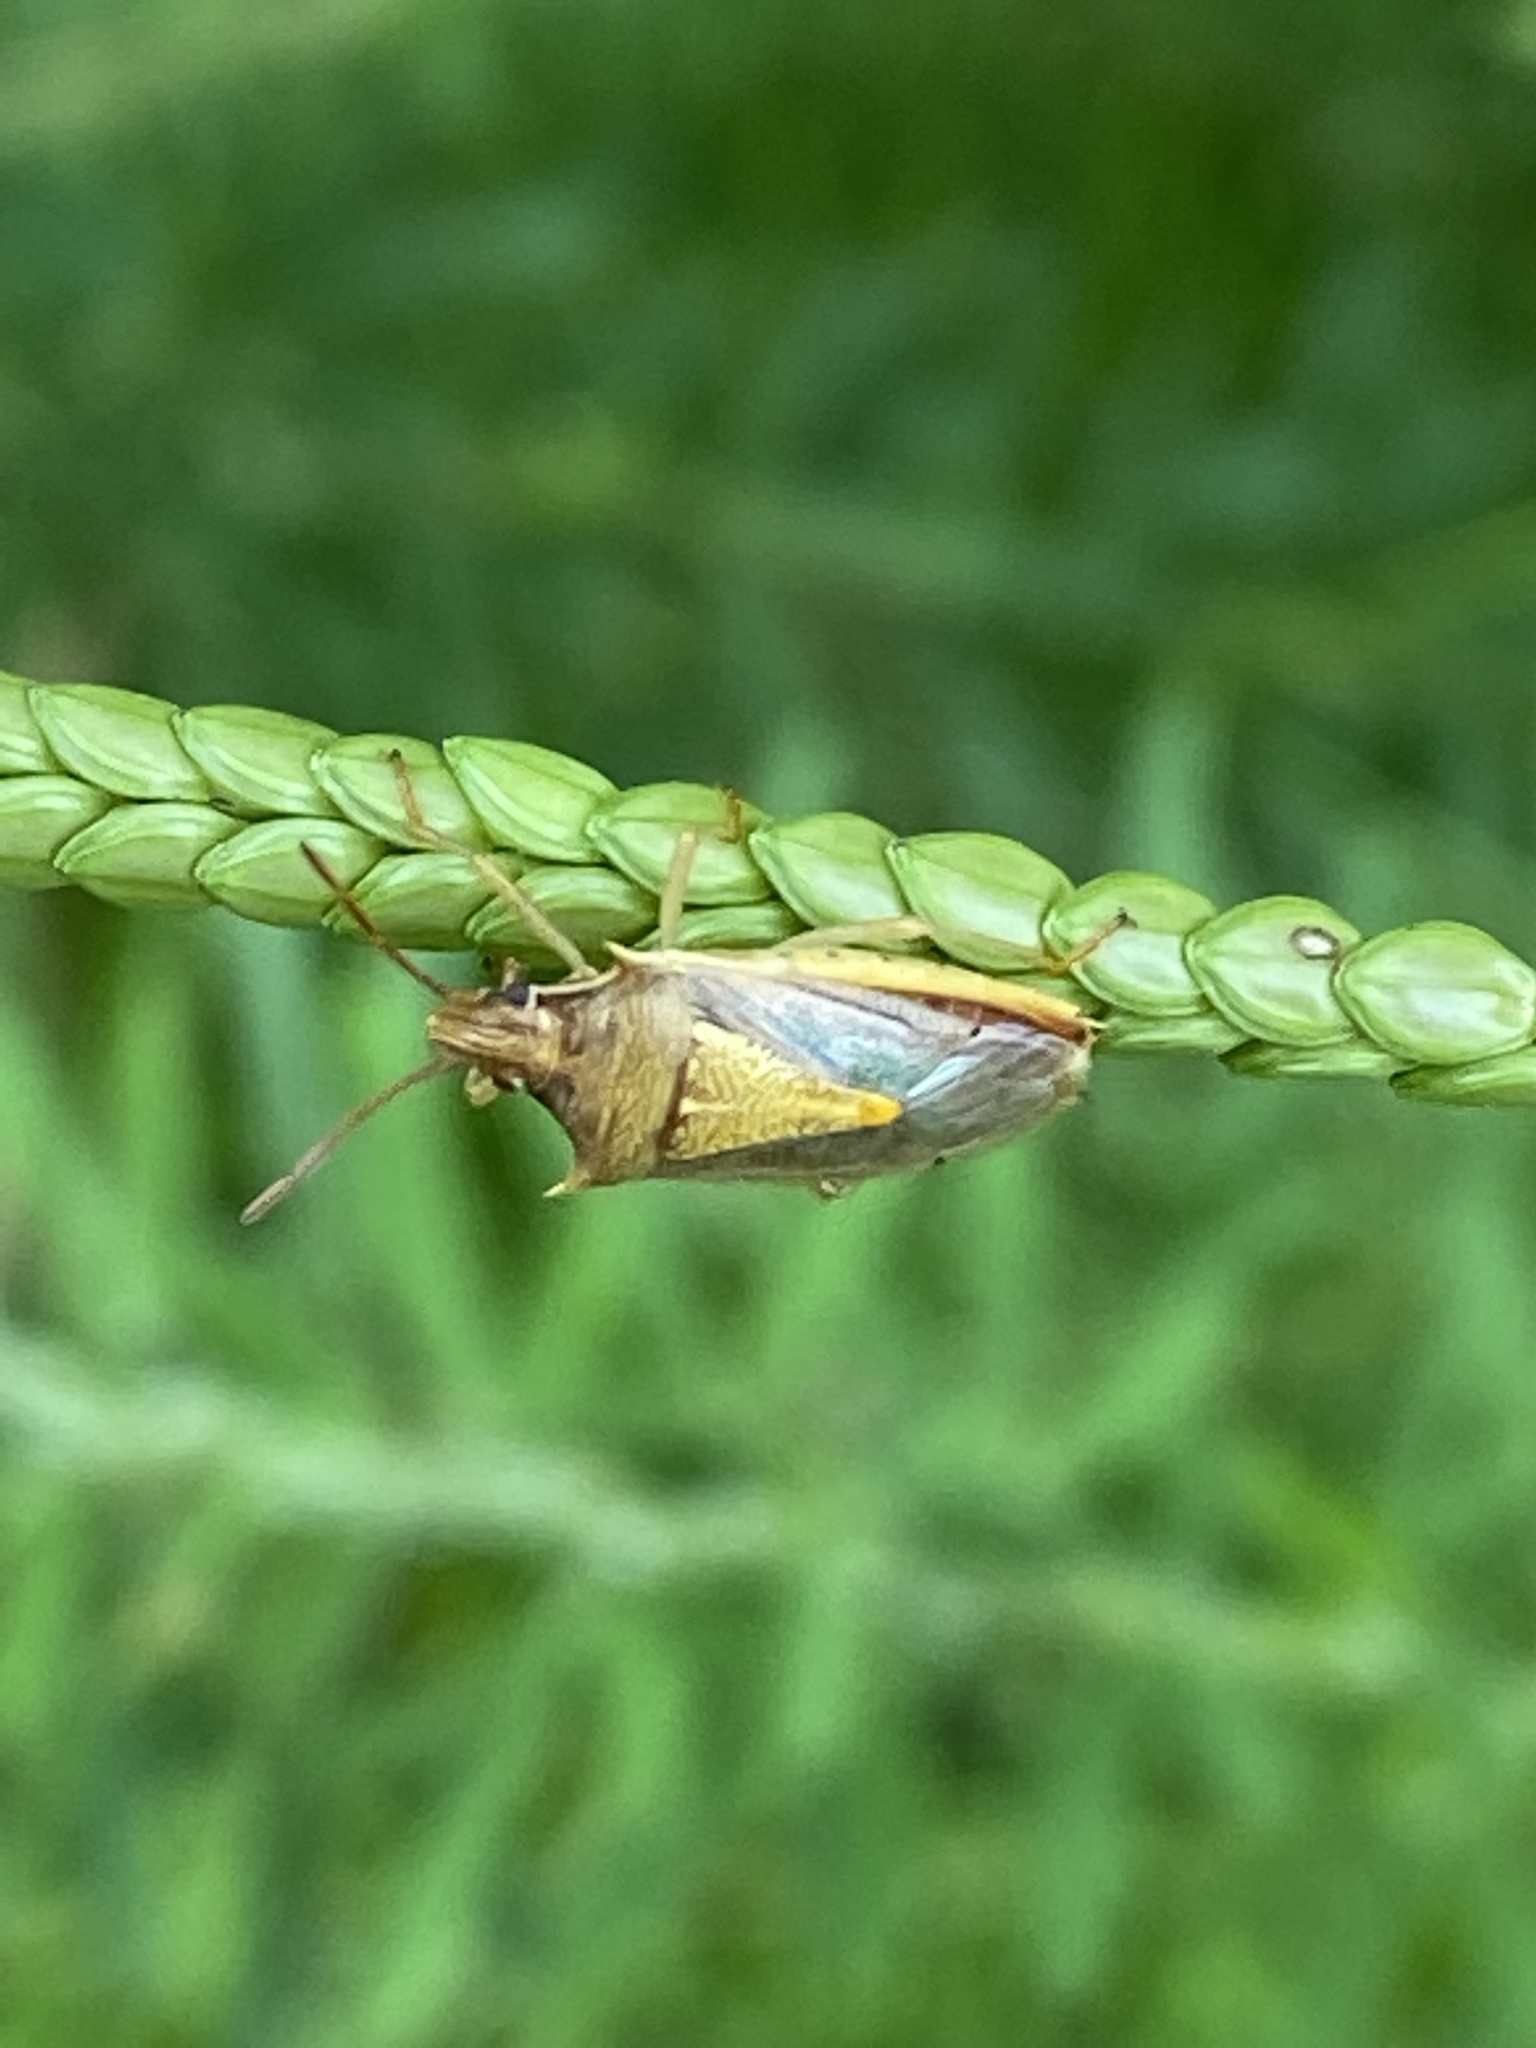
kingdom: Animalia
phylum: Arthropoda
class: Insecta
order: Hemiptera
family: Pentatomidae
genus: Oebalus
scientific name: Oebalus pugnax
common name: Rice stink bug
